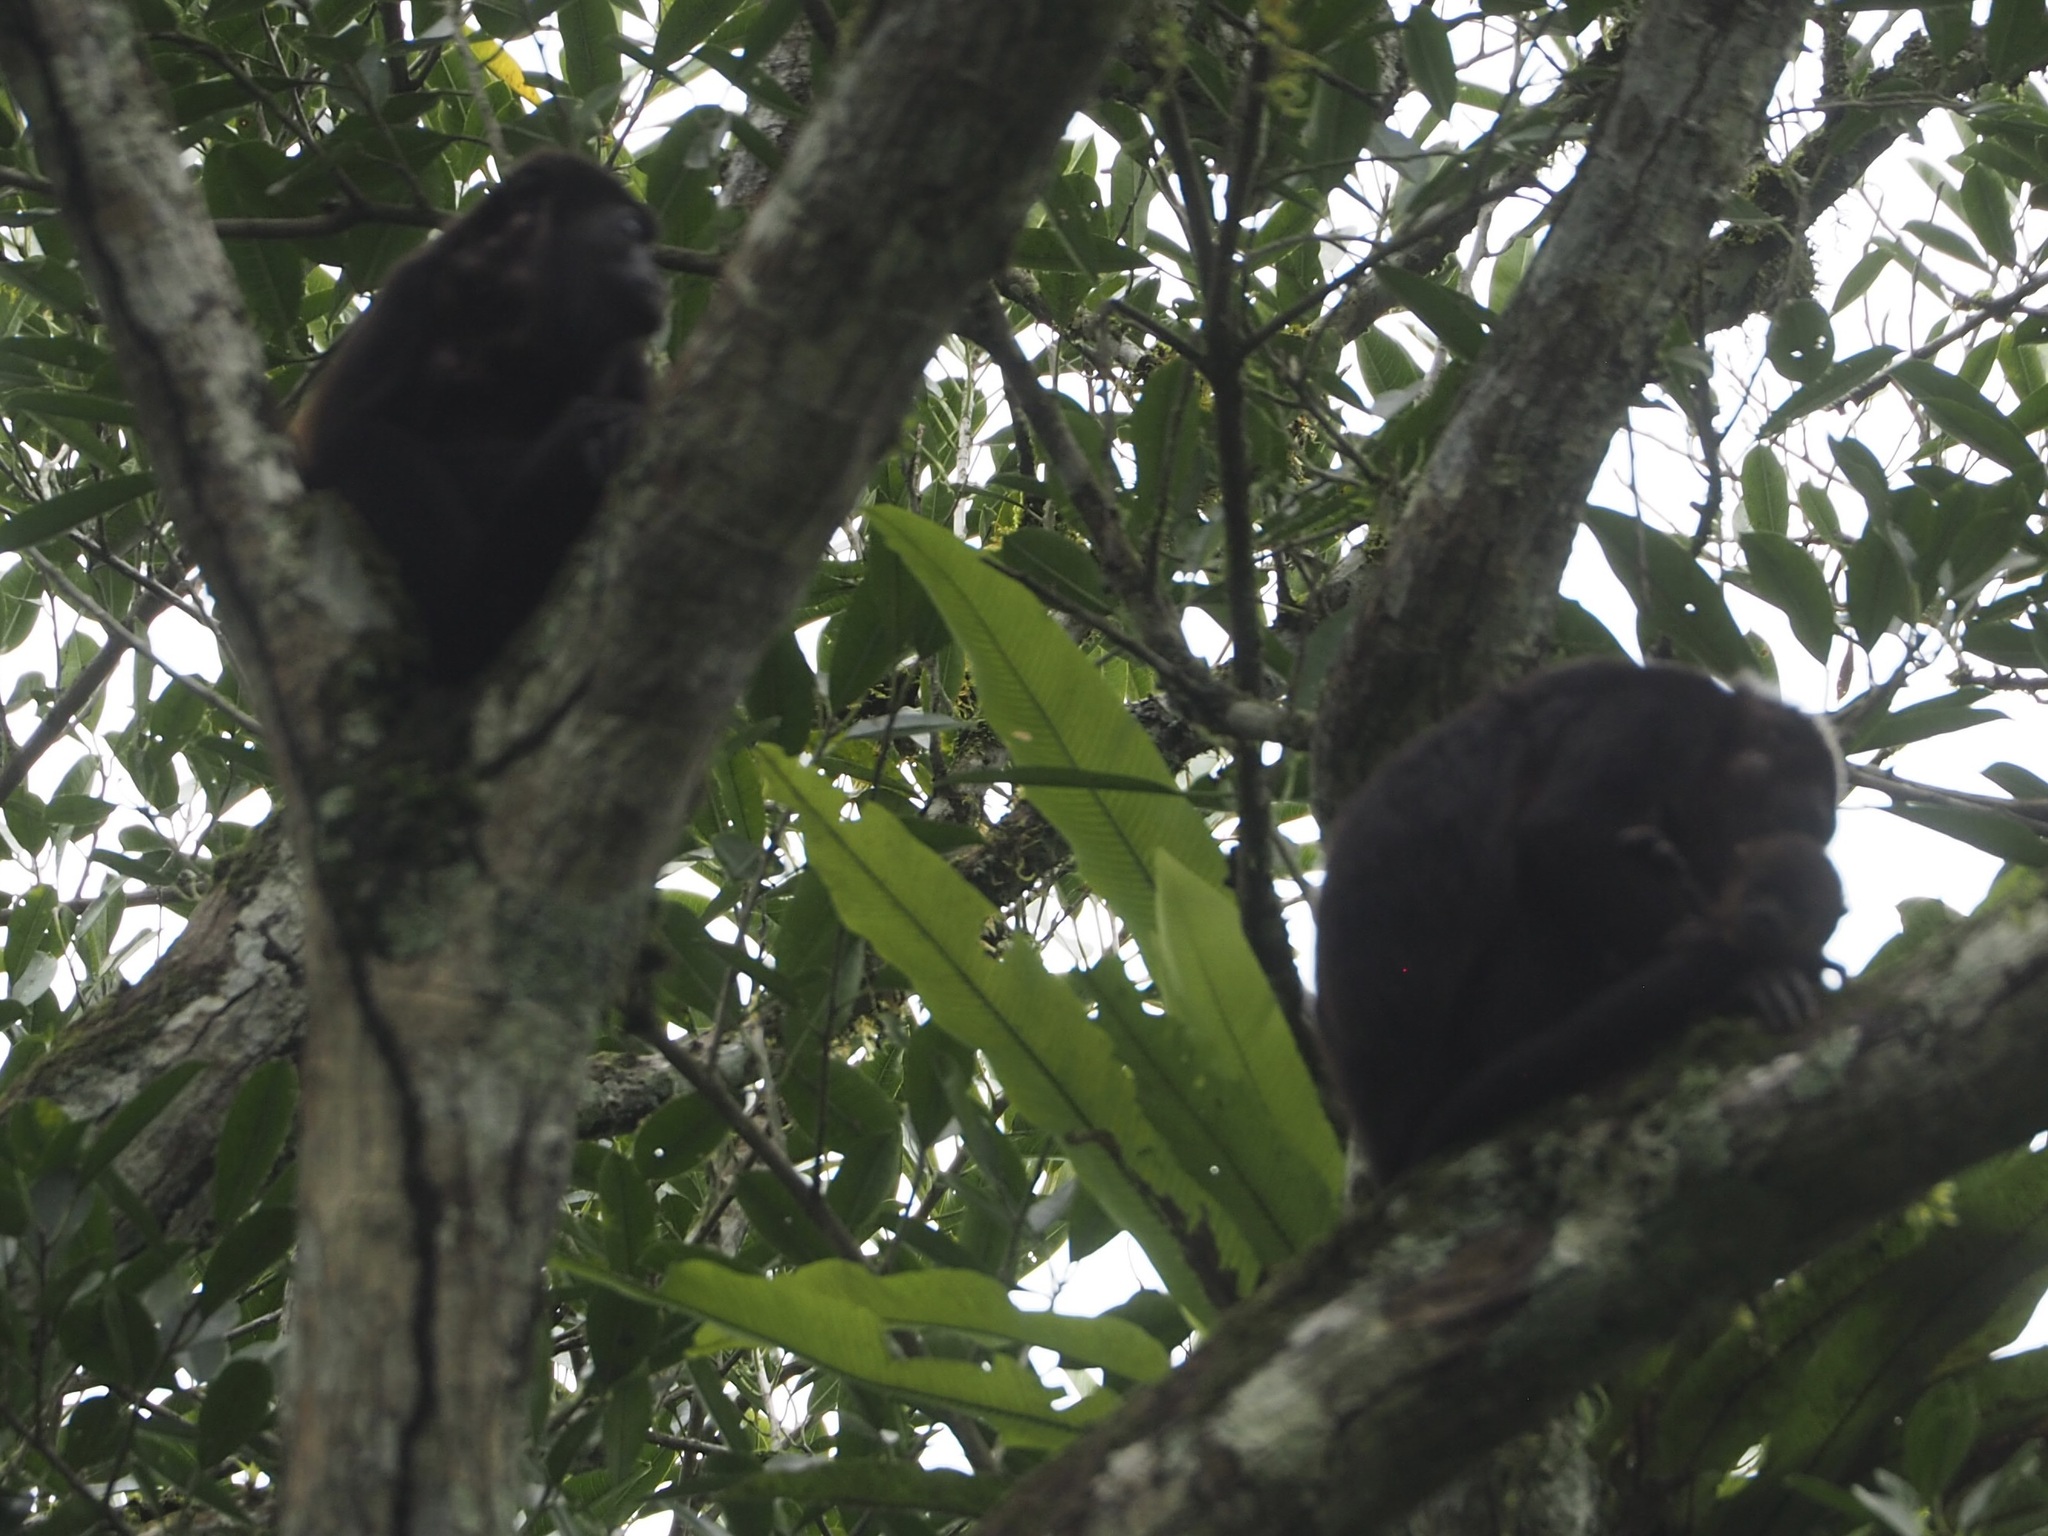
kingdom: Animalia
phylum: Chordata
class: Mammalia
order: Primates
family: Atelidae
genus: Alouatta
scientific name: Alouatta palliata
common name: Mantled howler
